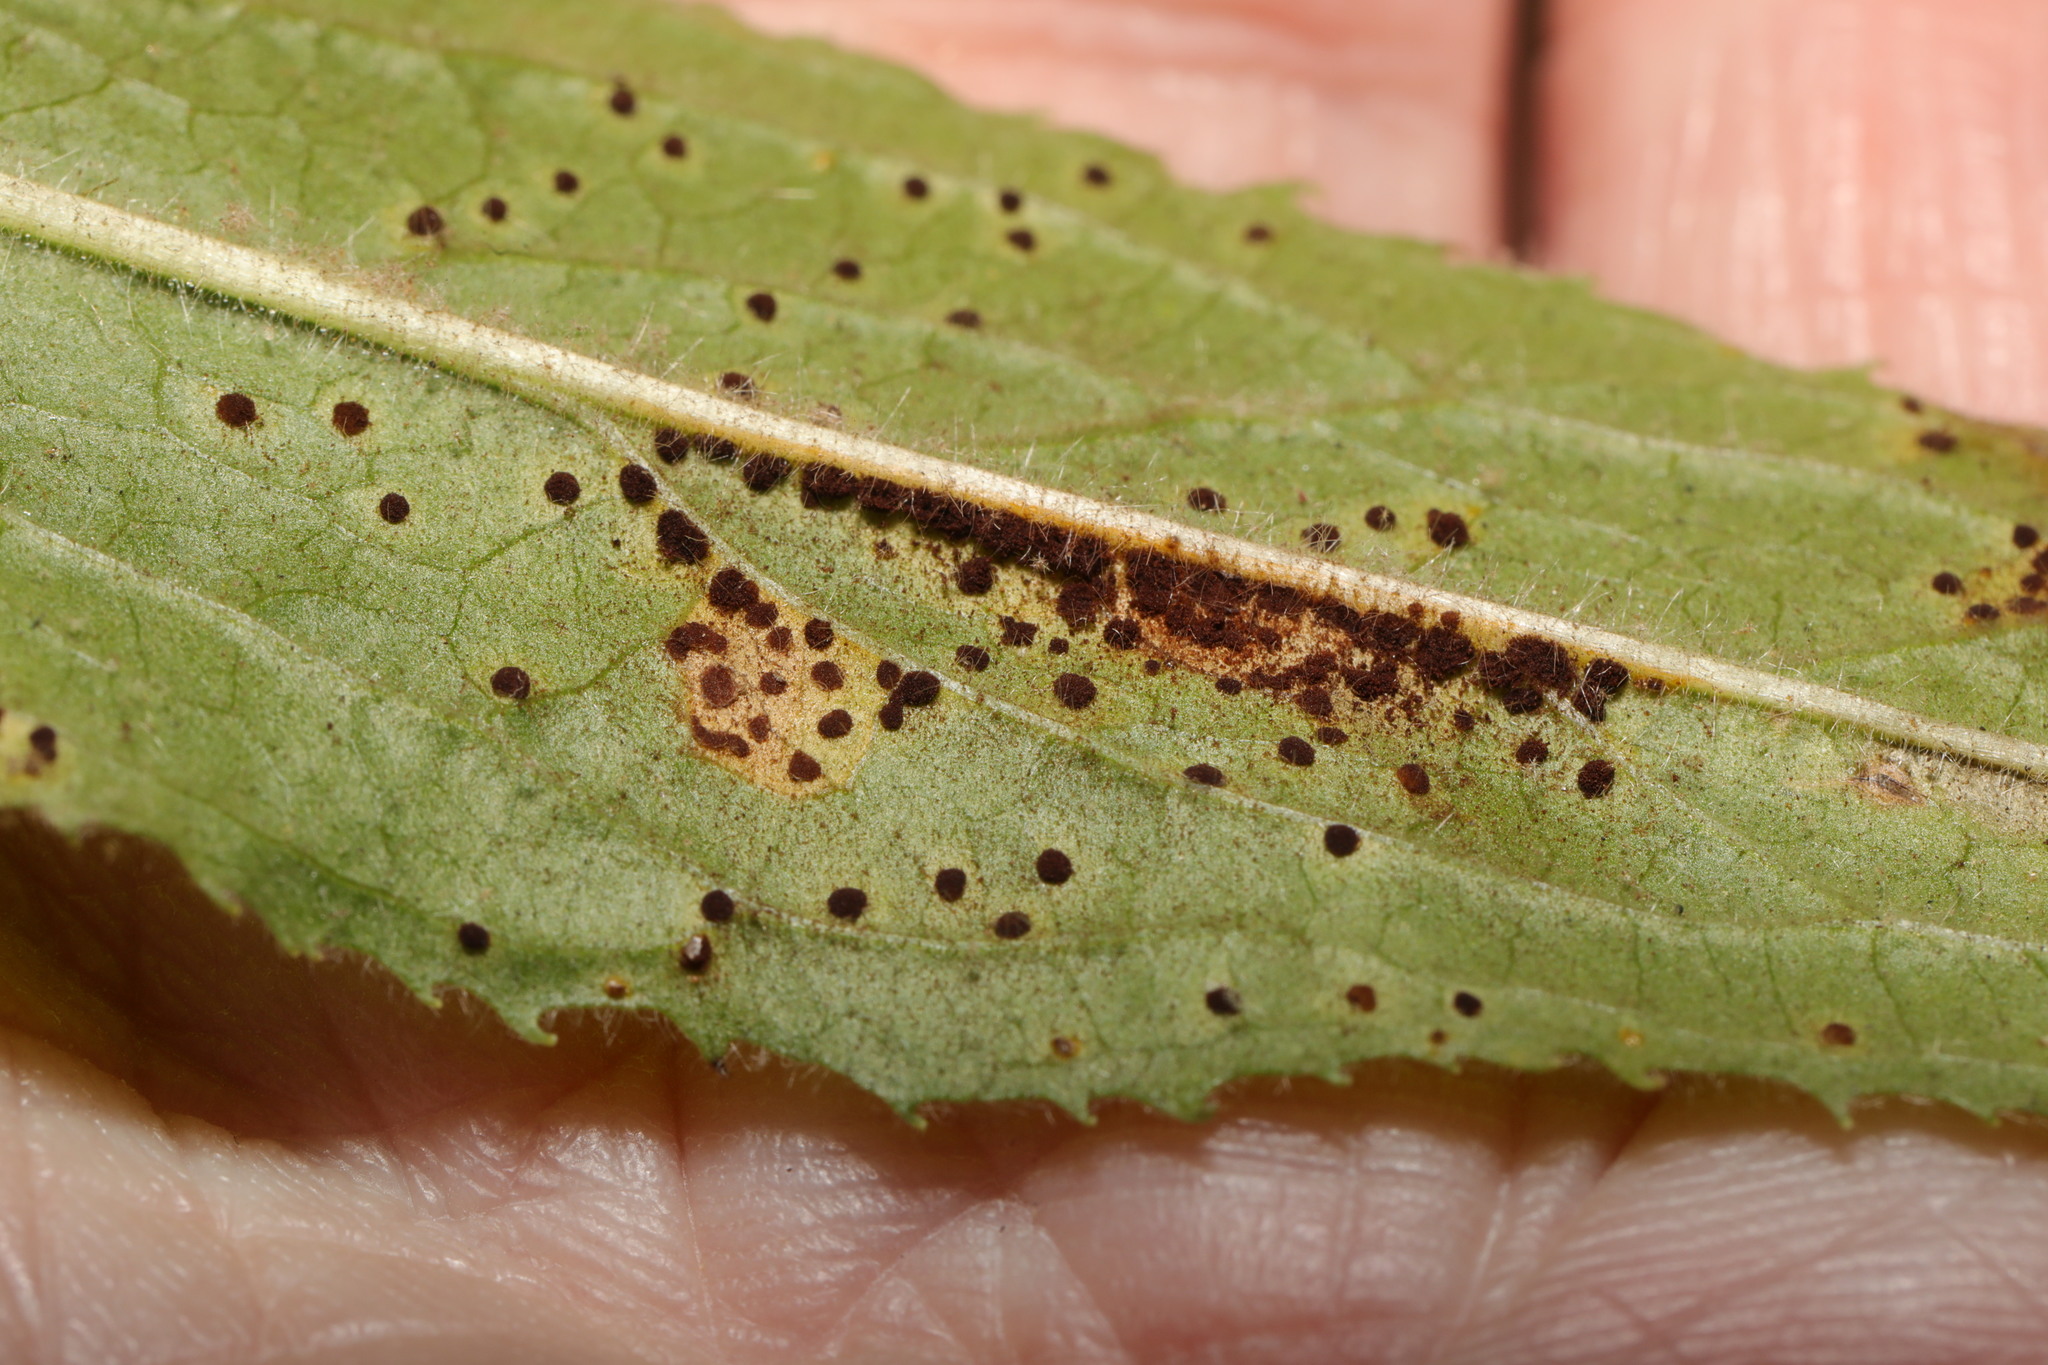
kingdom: Fungi
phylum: Basidiomycota
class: Pucciniomycetes
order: Pucciniales
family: Pucciniaceae
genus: Puccinia
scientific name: Puccinia pulverulenta
